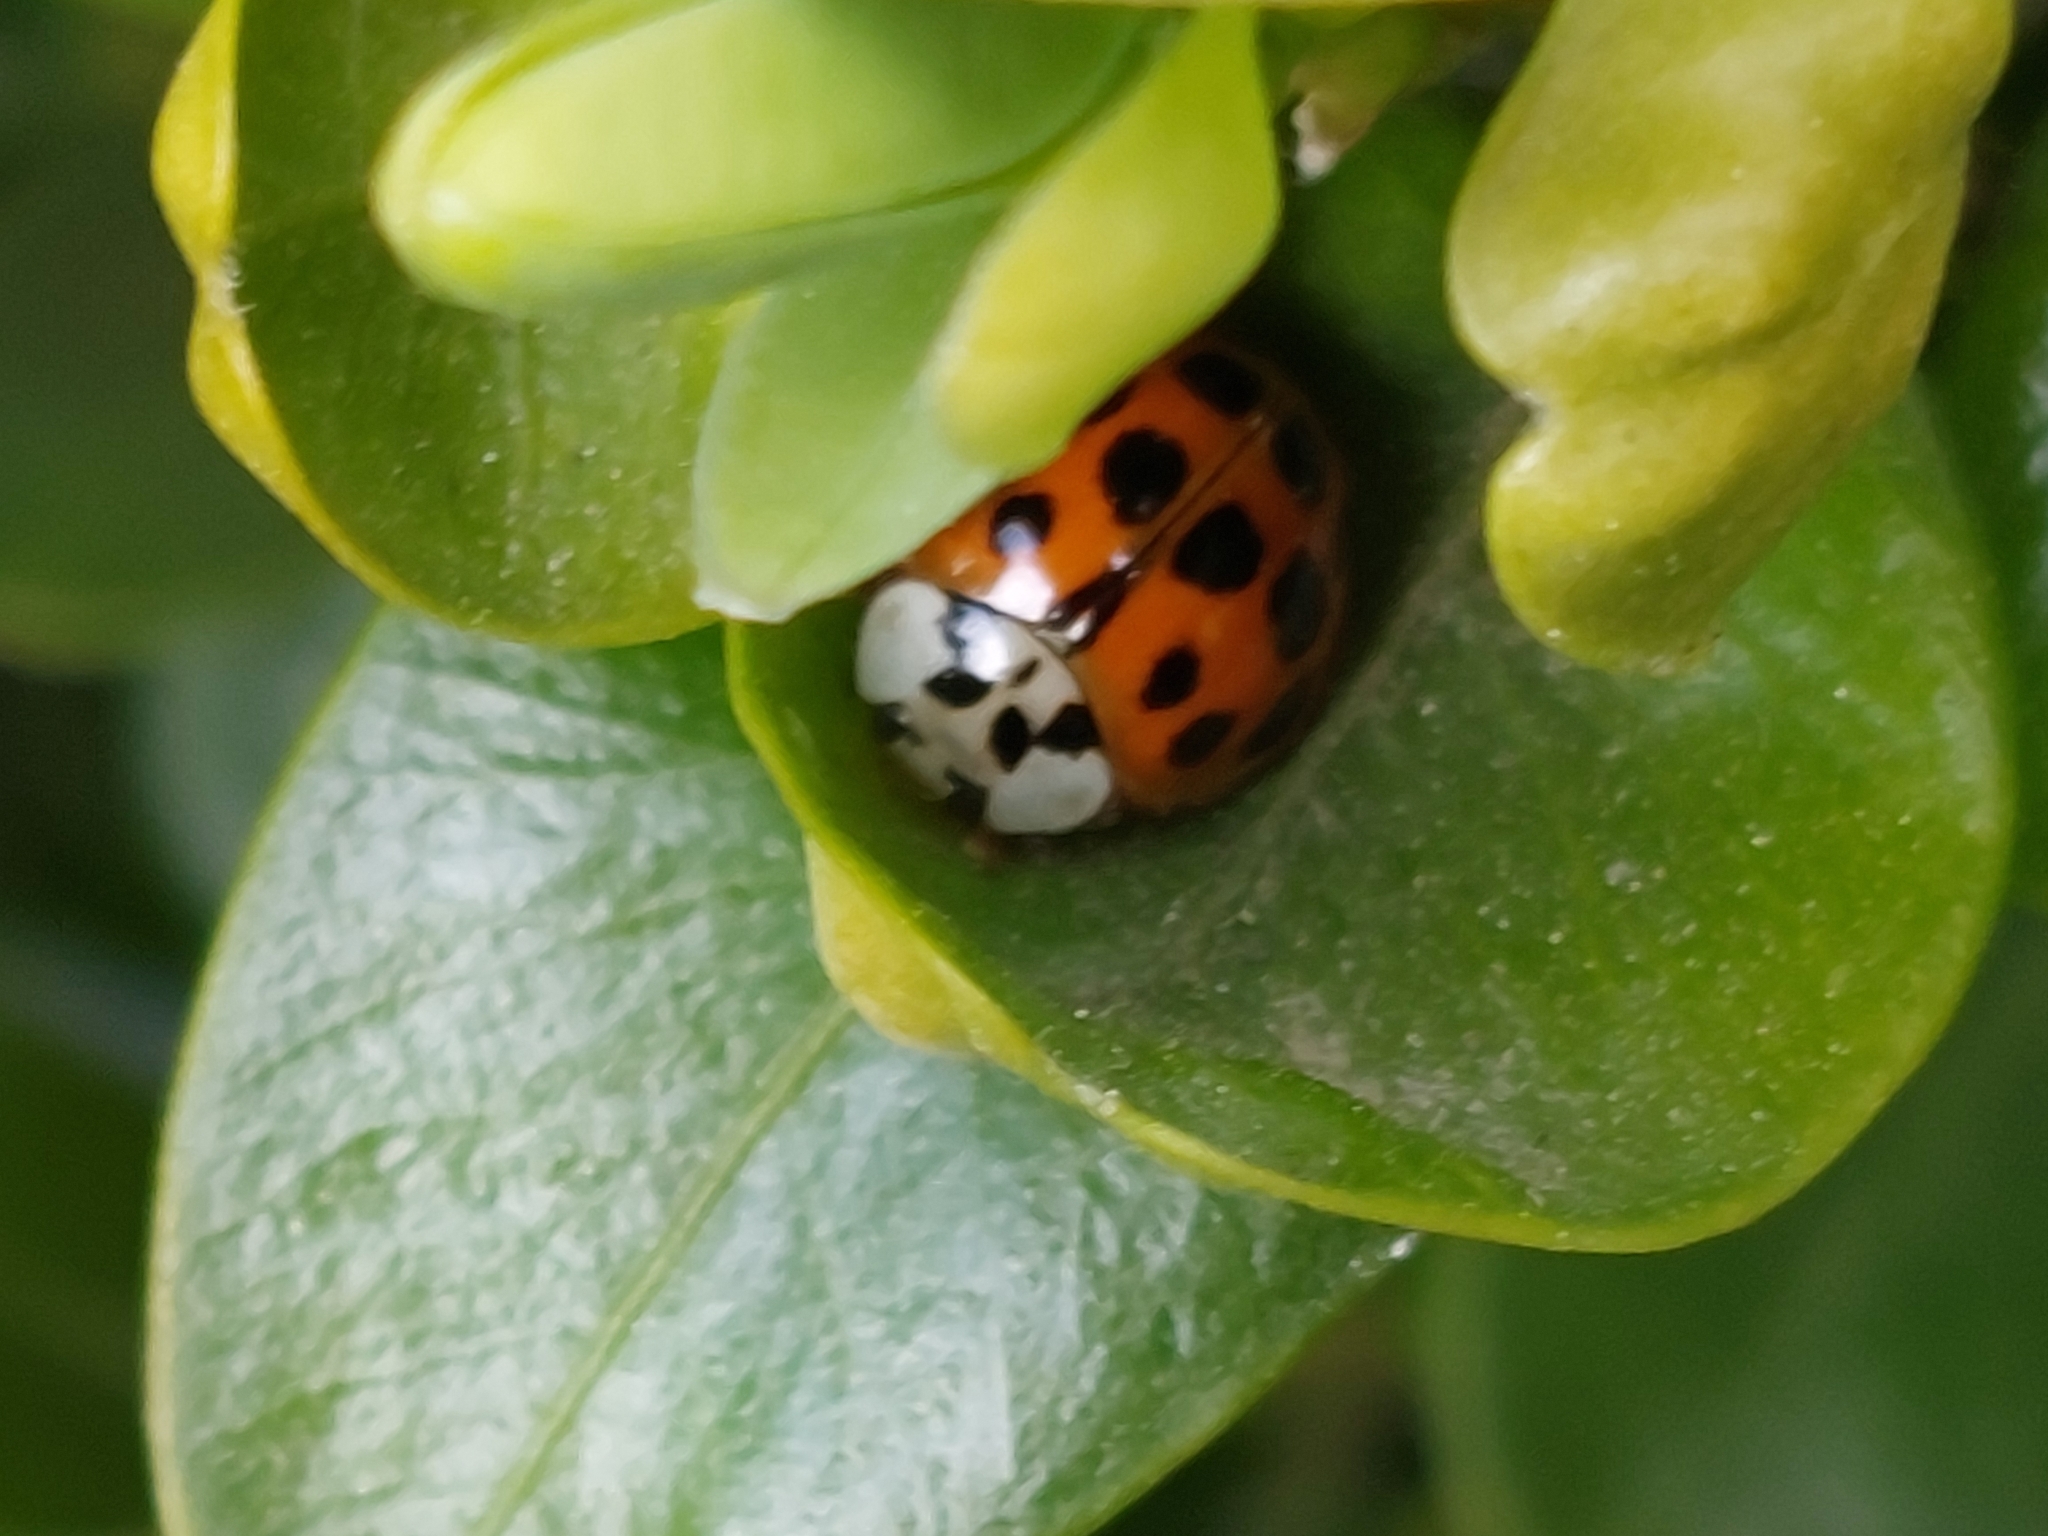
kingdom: Animalia
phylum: Arthropoda
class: Insecta
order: Coleoptera
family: Coccinellidae
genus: Harmonia
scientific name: Harmonia axyridis
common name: Harlequin ladybird
